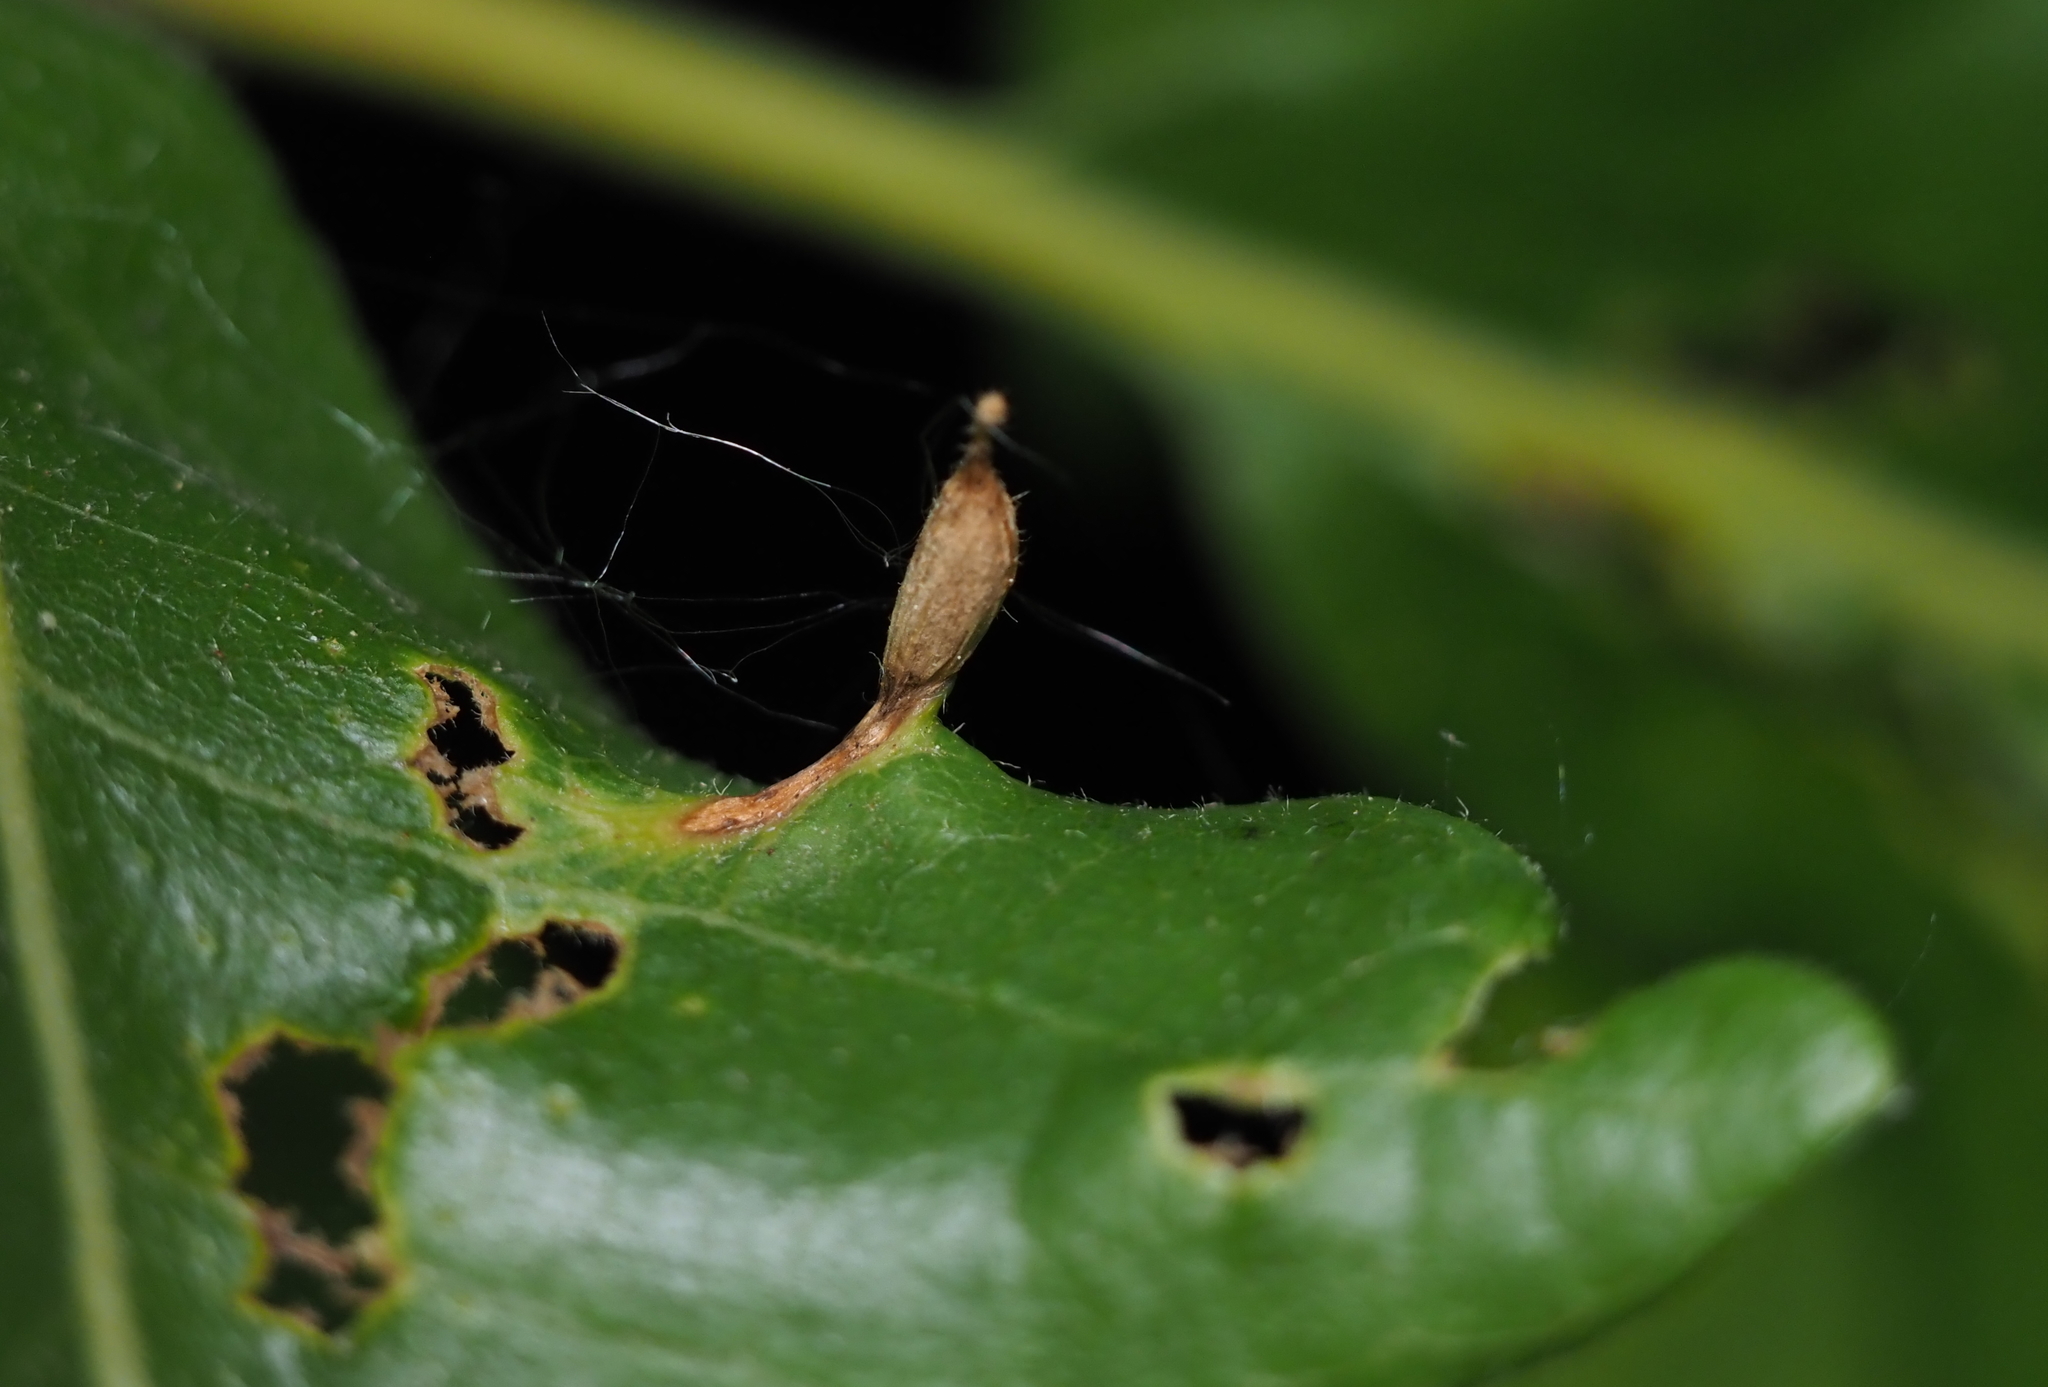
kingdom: Animalia
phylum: Arthropoda
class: Insecta
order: Hymenoptera
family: Cynipidae
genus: Andricus
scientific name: Andricus
